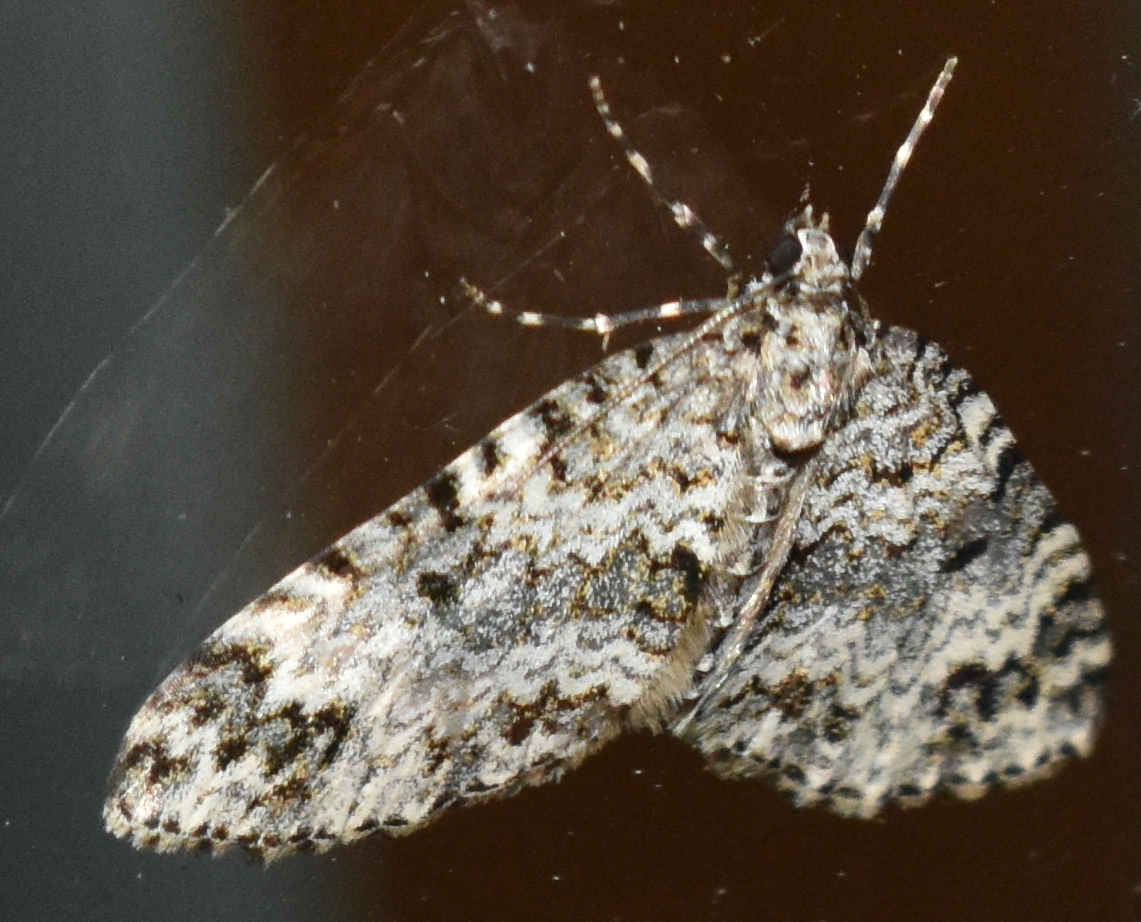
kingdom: Animalia
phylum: Arthropoda
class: Insecta
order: Lepidoptera
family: Geometridae
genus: Spargania
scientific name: Spargania magnoliata
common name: Double-banded carpet
